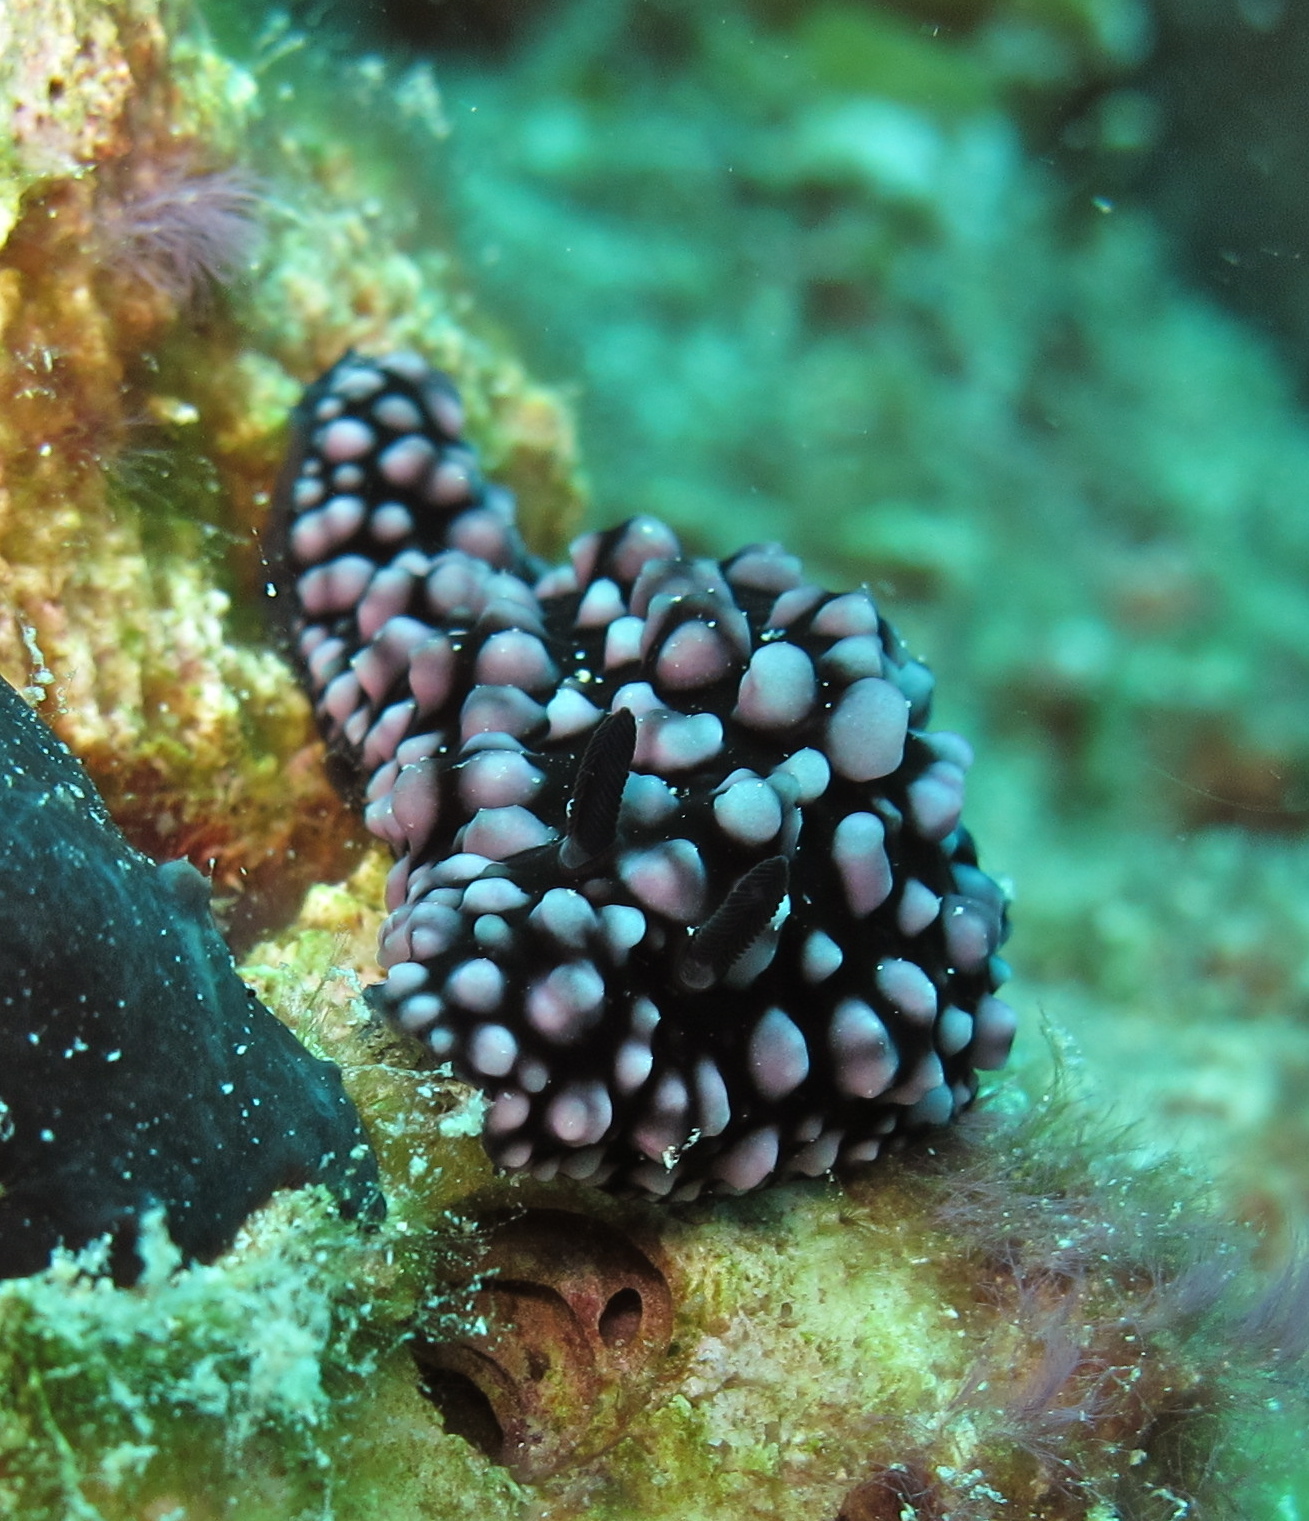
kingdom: Animalia
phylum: Mollusca
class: Gastropoda
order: Nudibranchia
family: Phyllidiidae
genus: Phyllidiella
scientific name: Phyllidiella nigra
